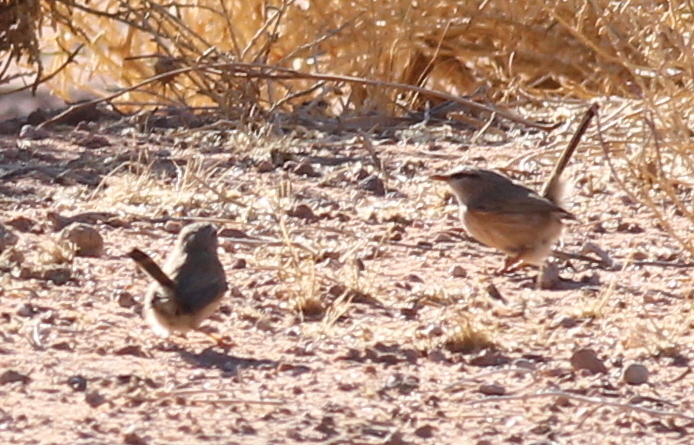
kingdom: Animalia
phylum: Chordata
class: Aves
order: Passeriformes
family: Scotocercidae
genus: Scotocerca
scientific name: Scotocerca inquieta
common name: Scrub warbler
